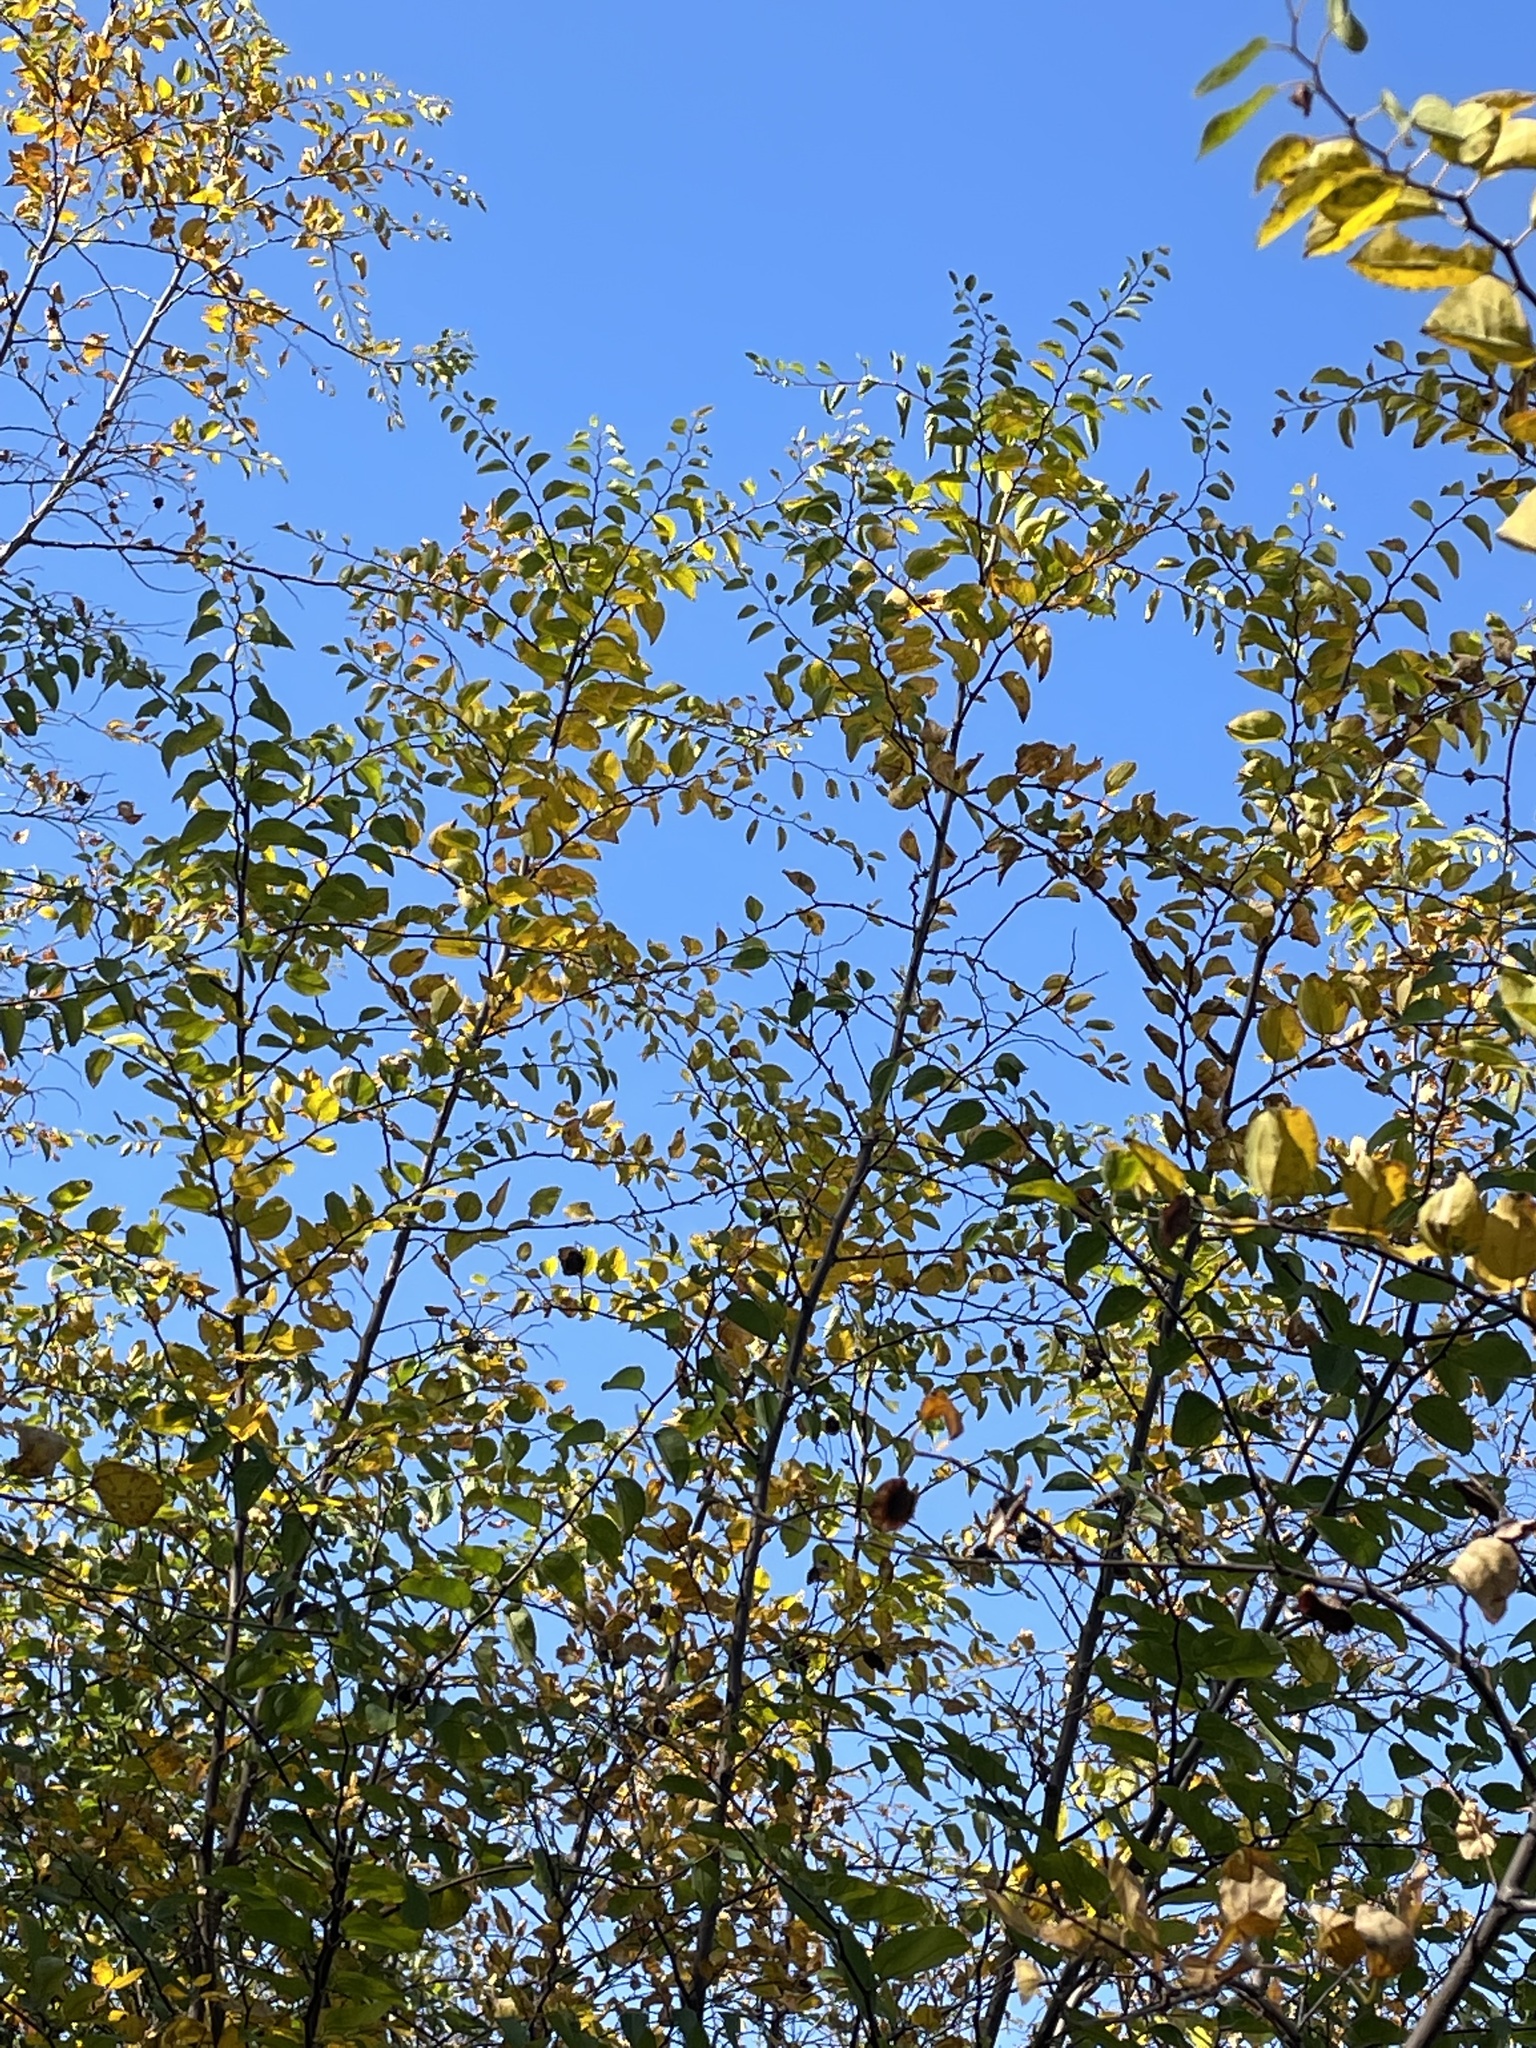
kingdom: Plantae
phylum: Tracheophyta
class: Magnoliopsida
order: Rosales
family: Rhamnaceae
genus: Paliurus
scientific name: Paliurus spina-christi
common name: Jeruselem thorn
